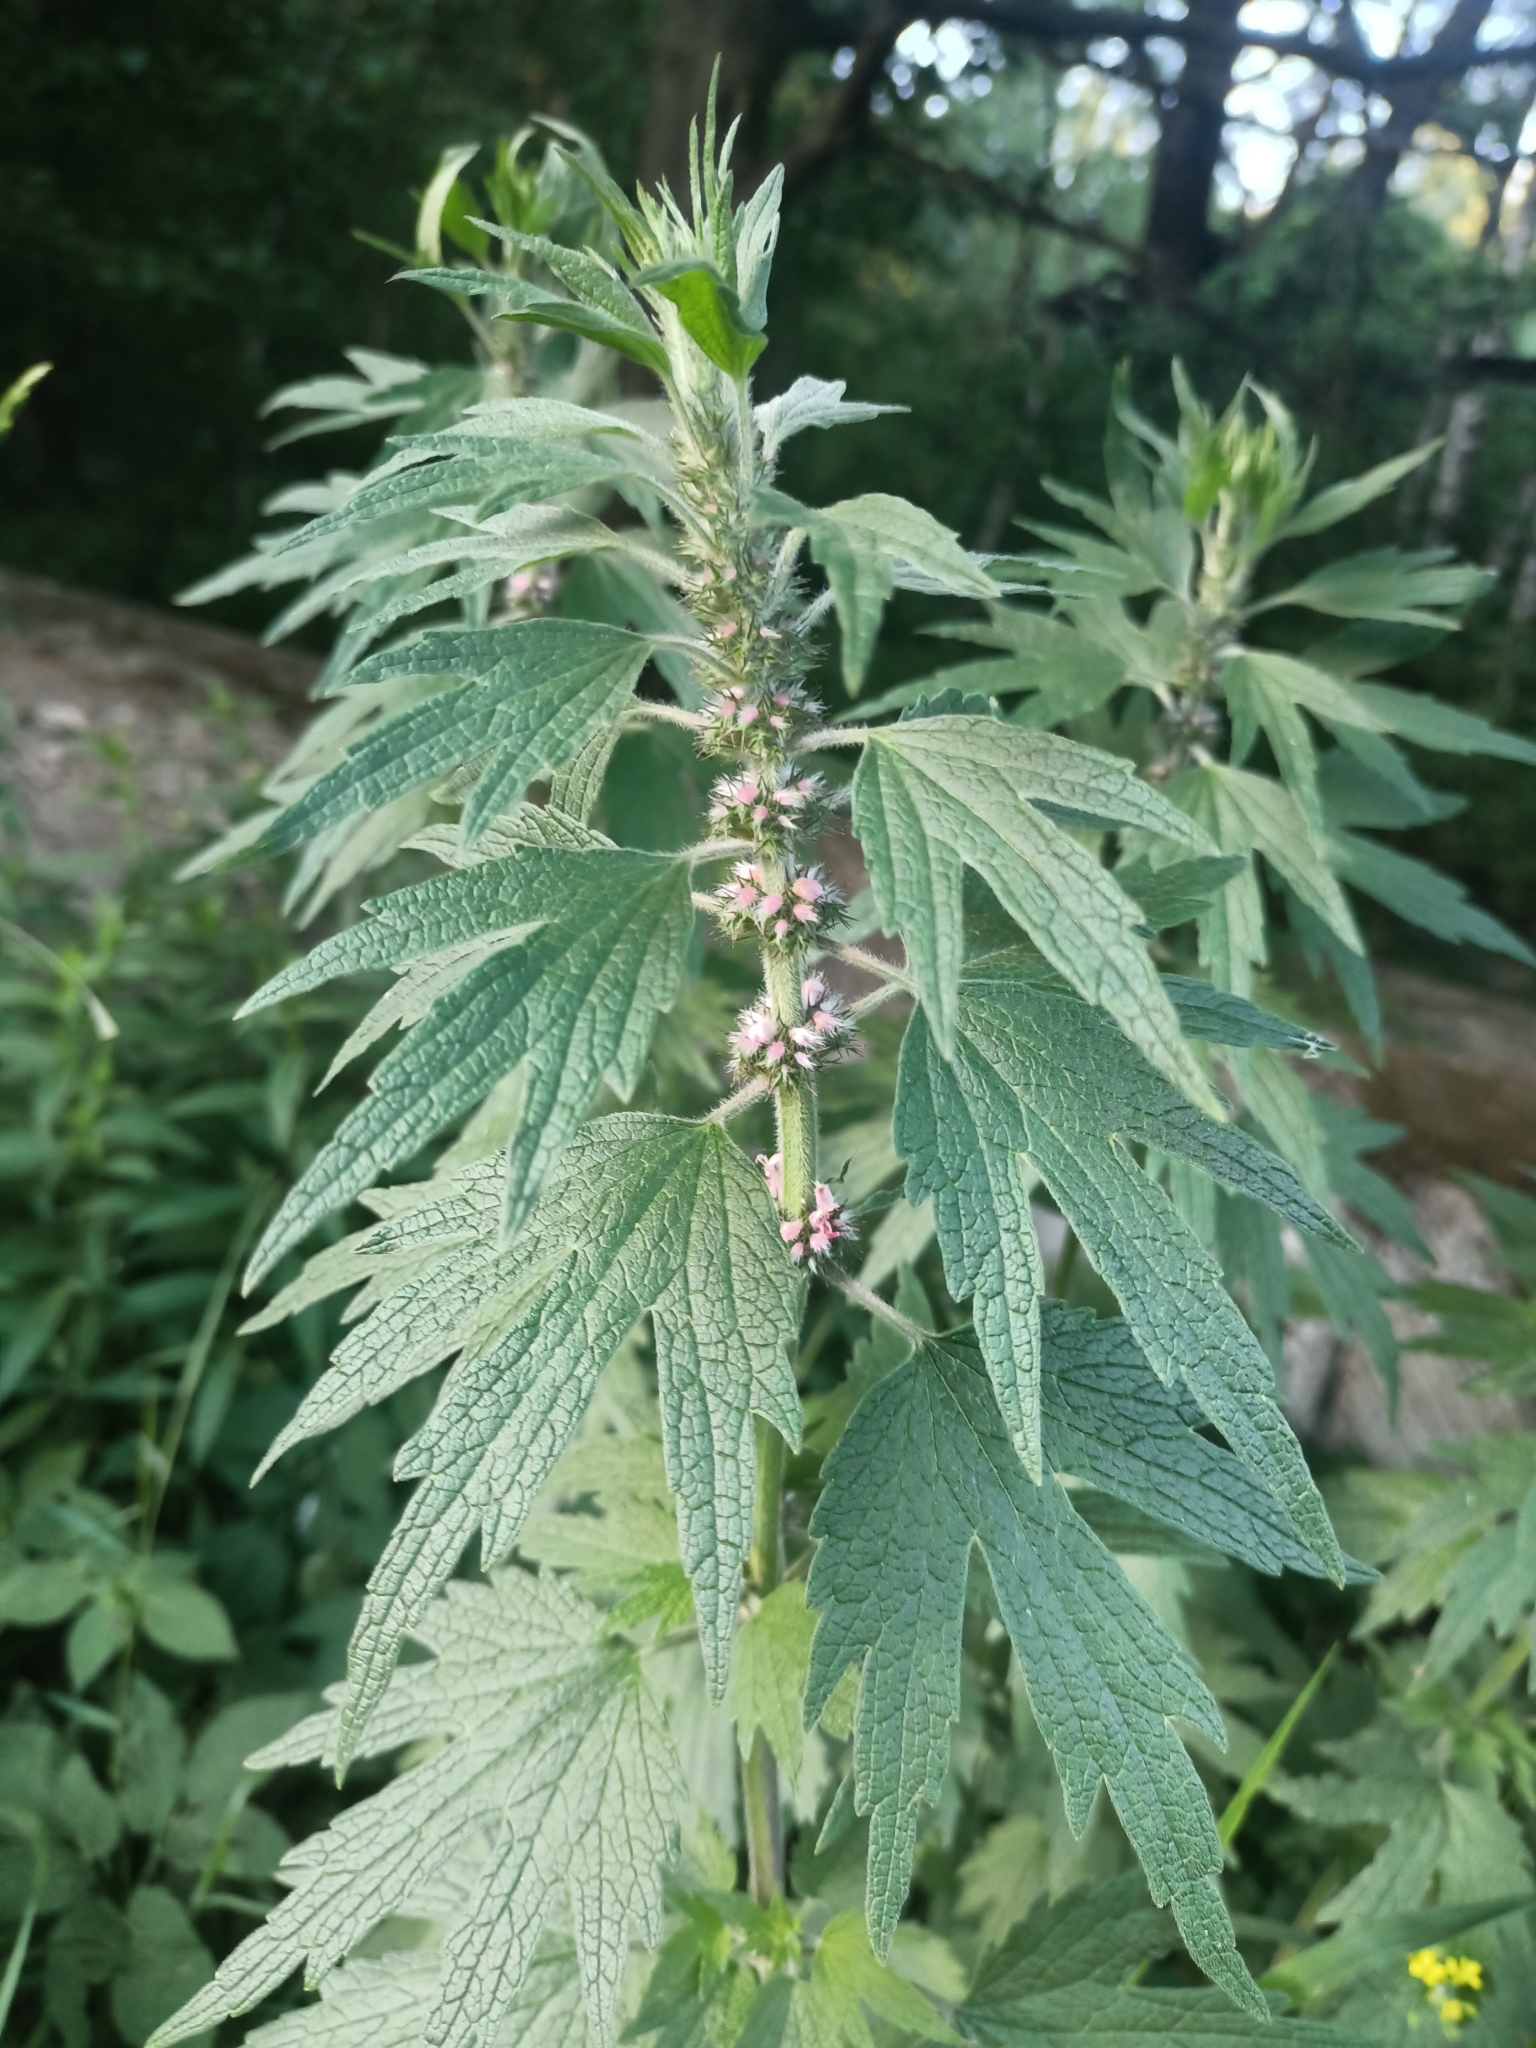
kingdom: Plantae
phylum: Tracheophyta
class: Magnoliopsida
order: Lamiales
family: Lamiaceae
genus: Leonurus
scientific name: Leonurus quinquelobatus
